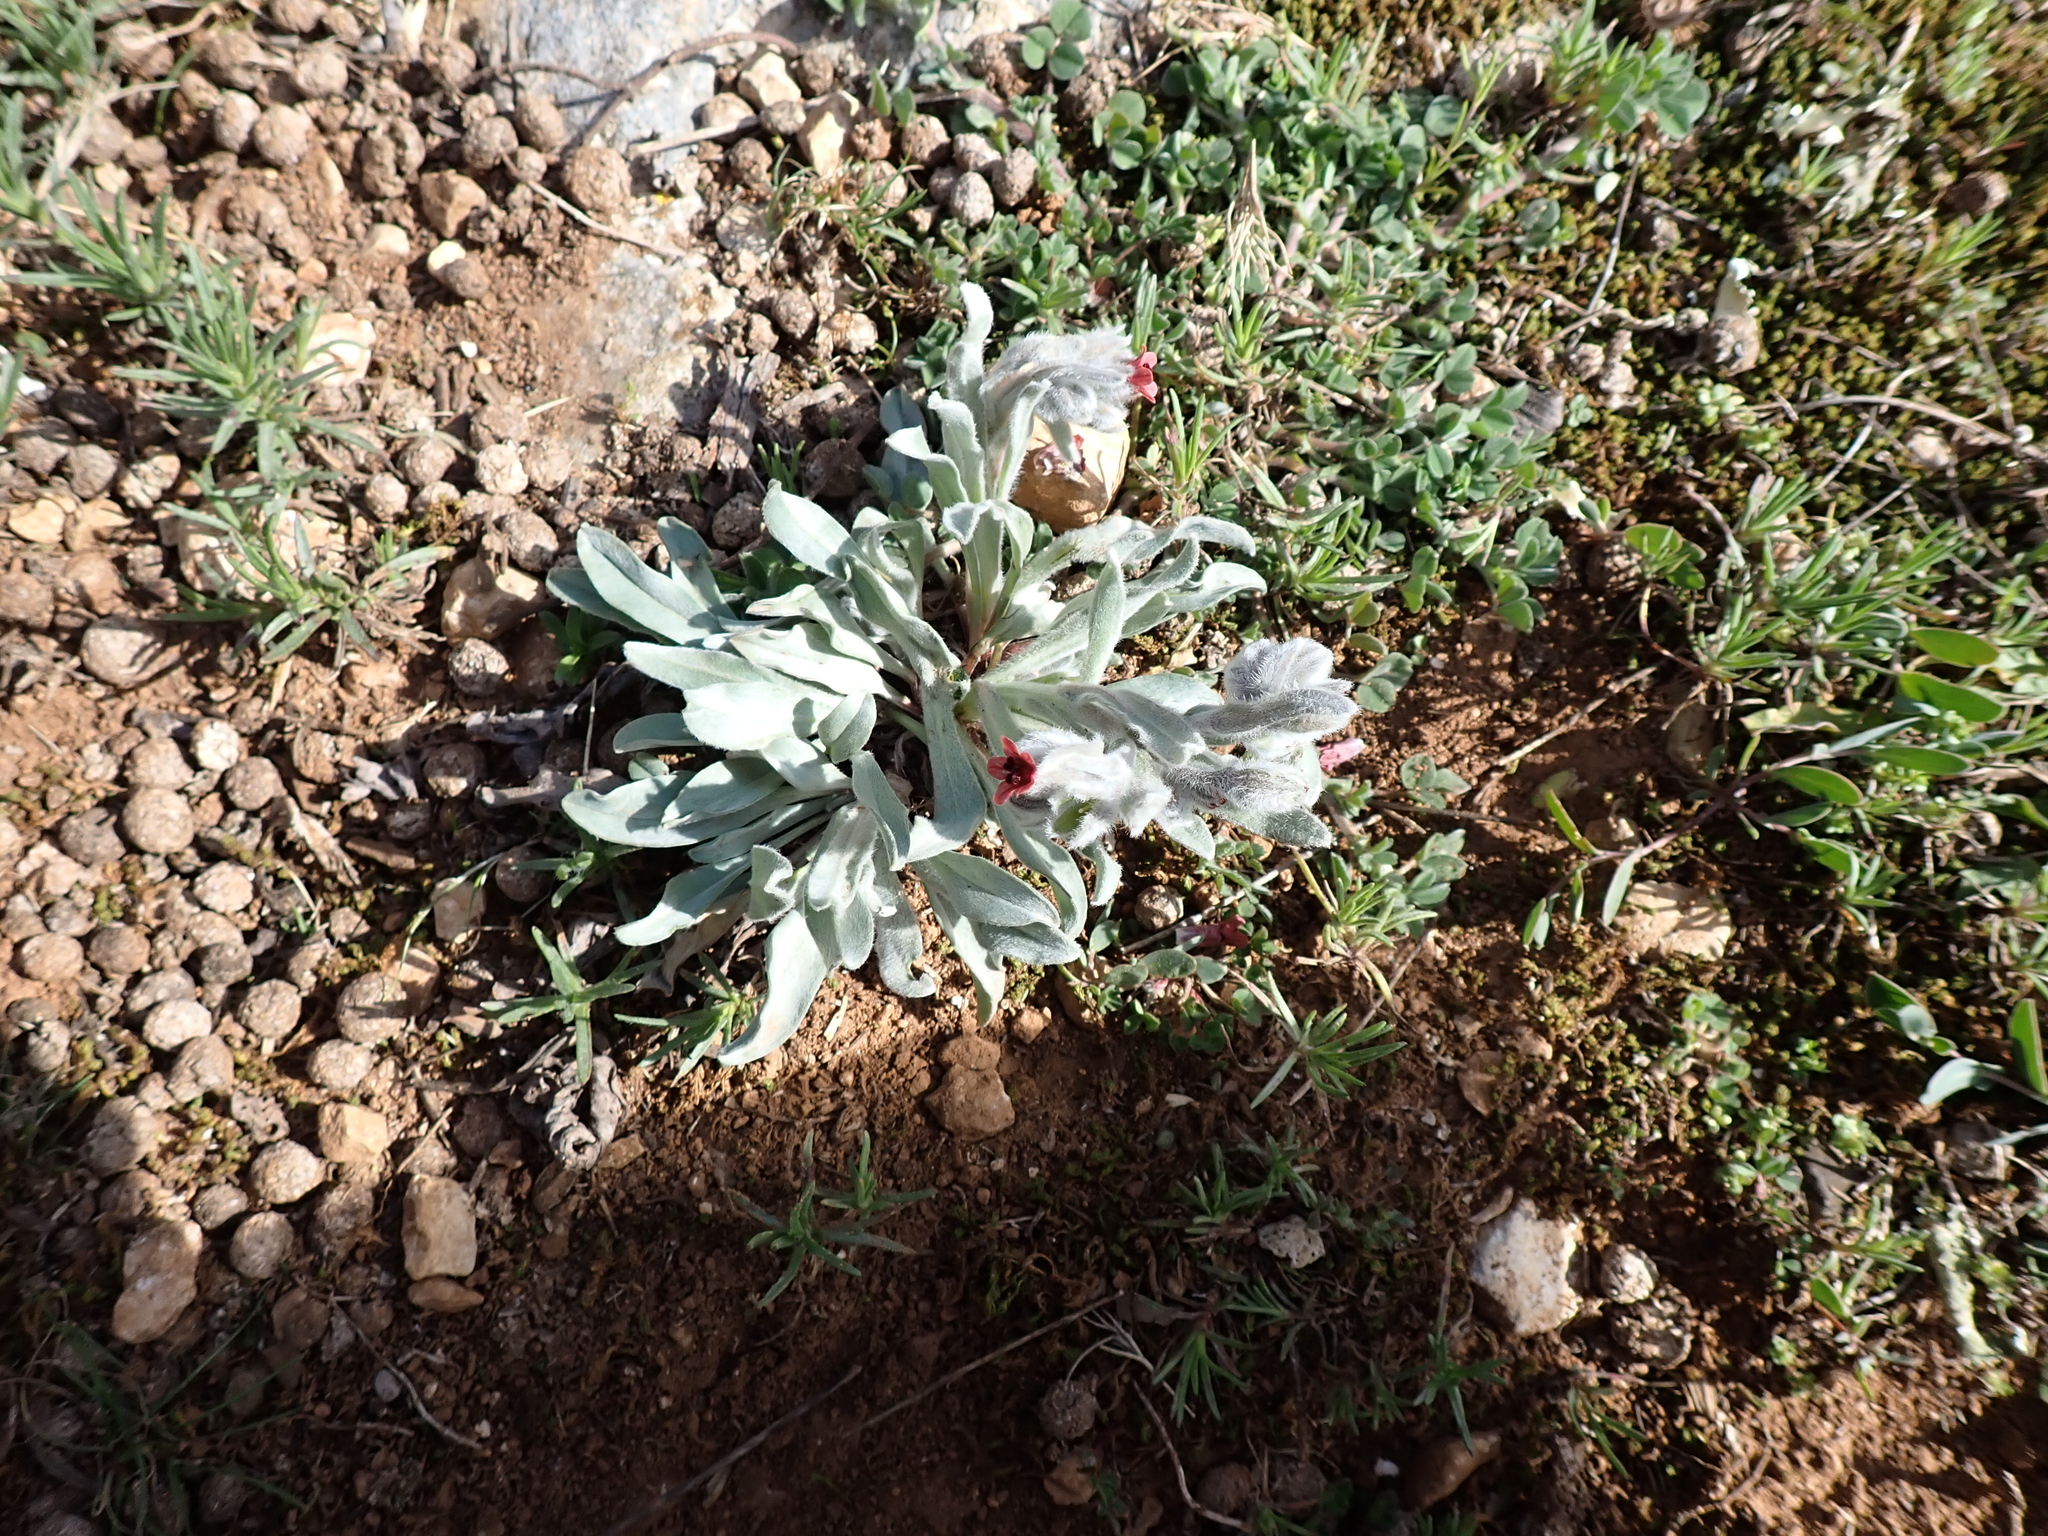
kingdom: Plantae
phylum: Tracheophyta
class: Magnoliopsida
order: Boraginales
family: Boraginaceae
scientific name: Boraginaceae
